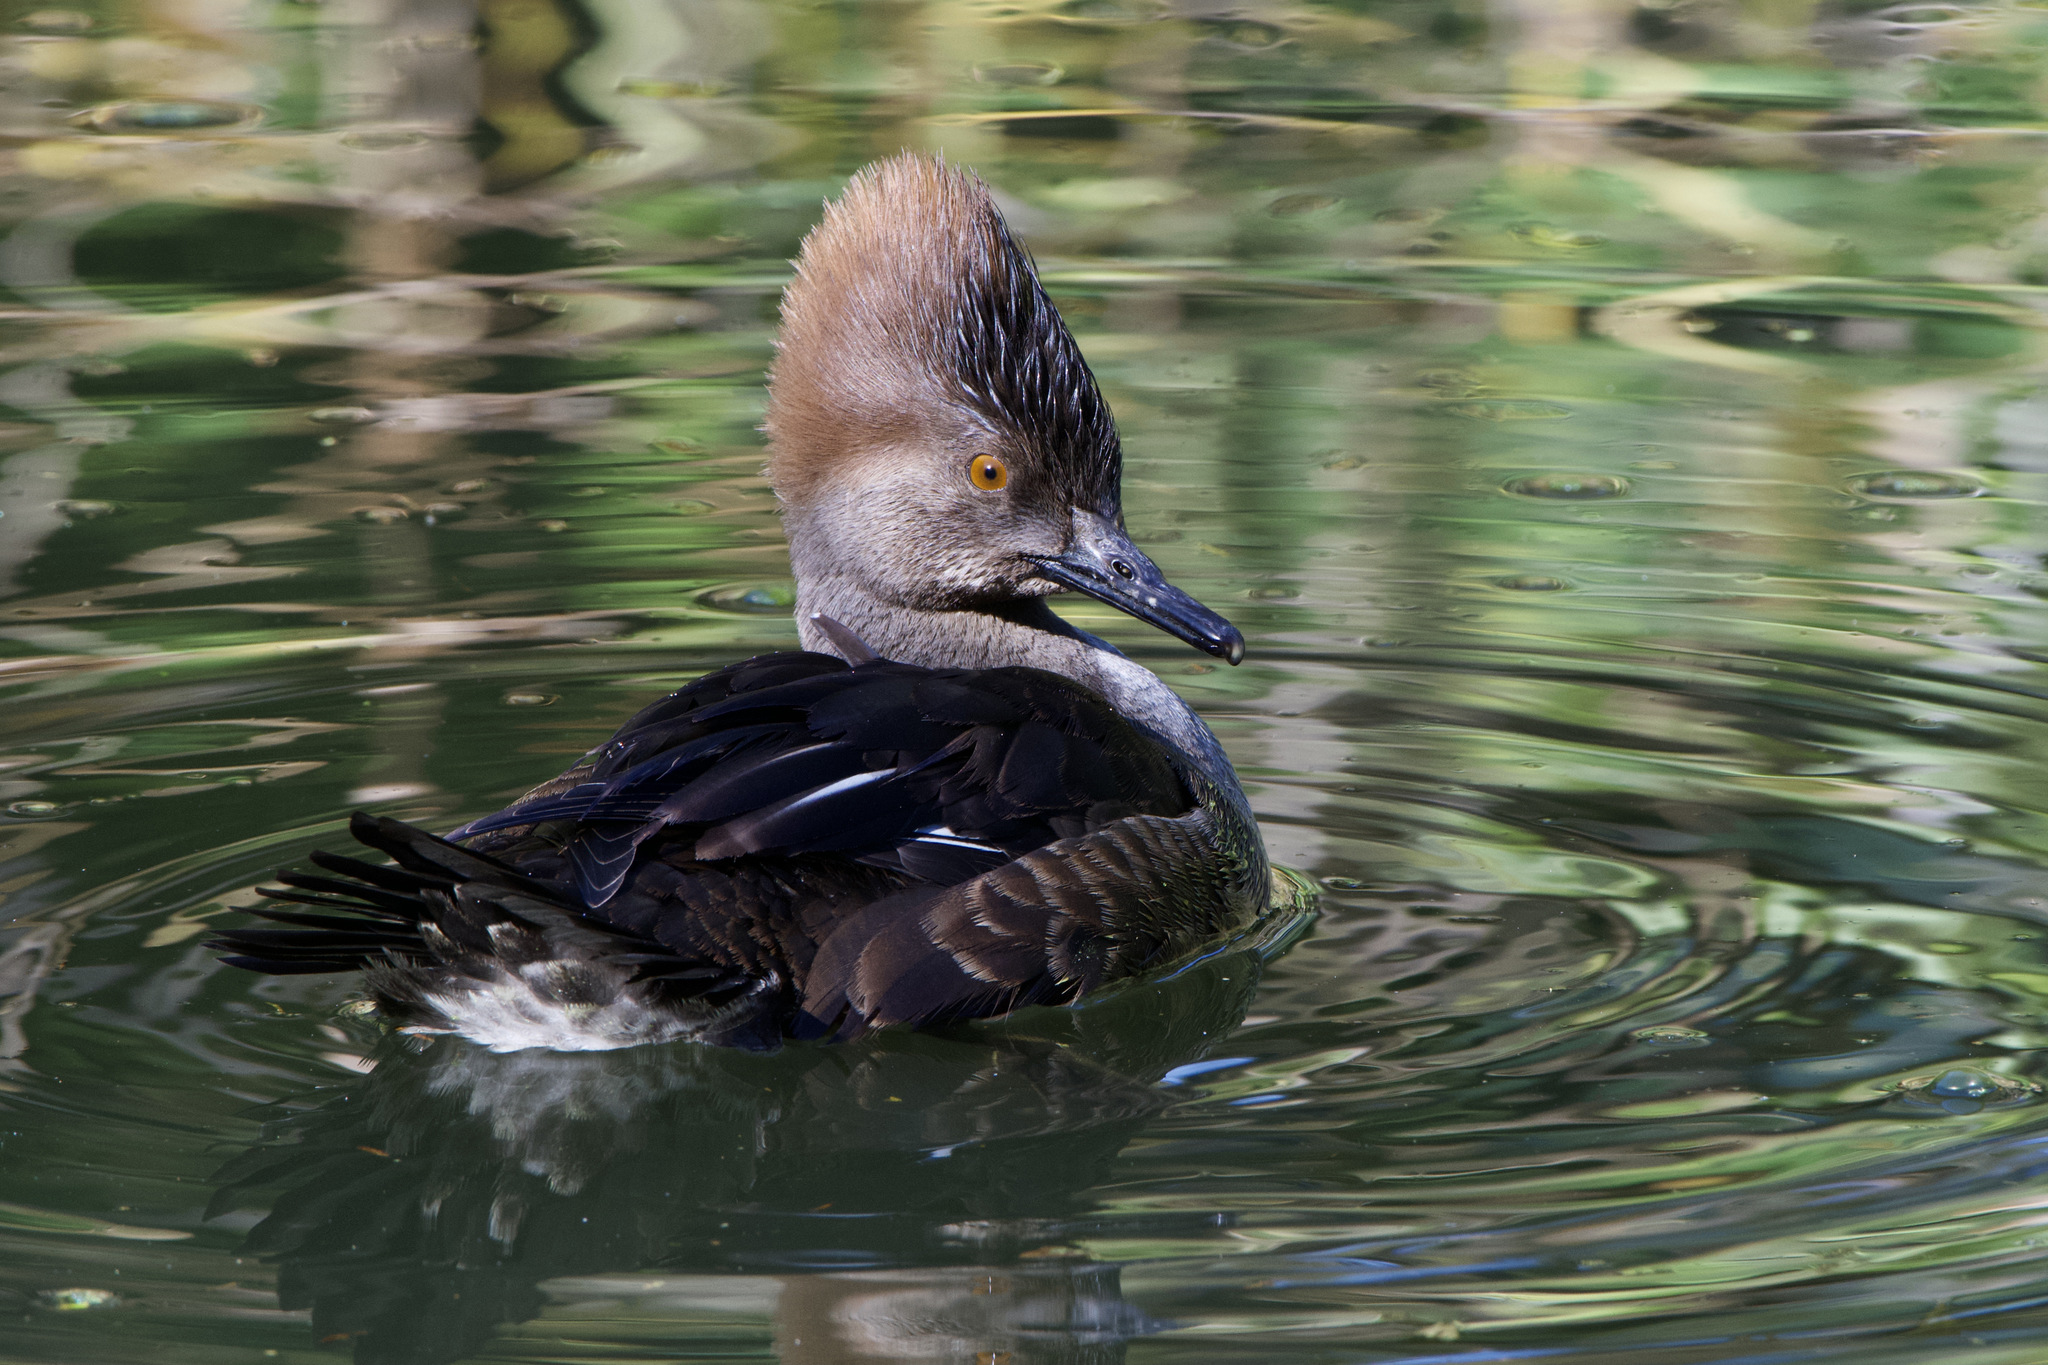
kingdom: Animalia
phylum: Chordata
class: Aves
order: Anseriformes
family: Anatidae
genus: Lophodytes
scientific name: Lophodytes cucullatus
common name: Hooded merganser
